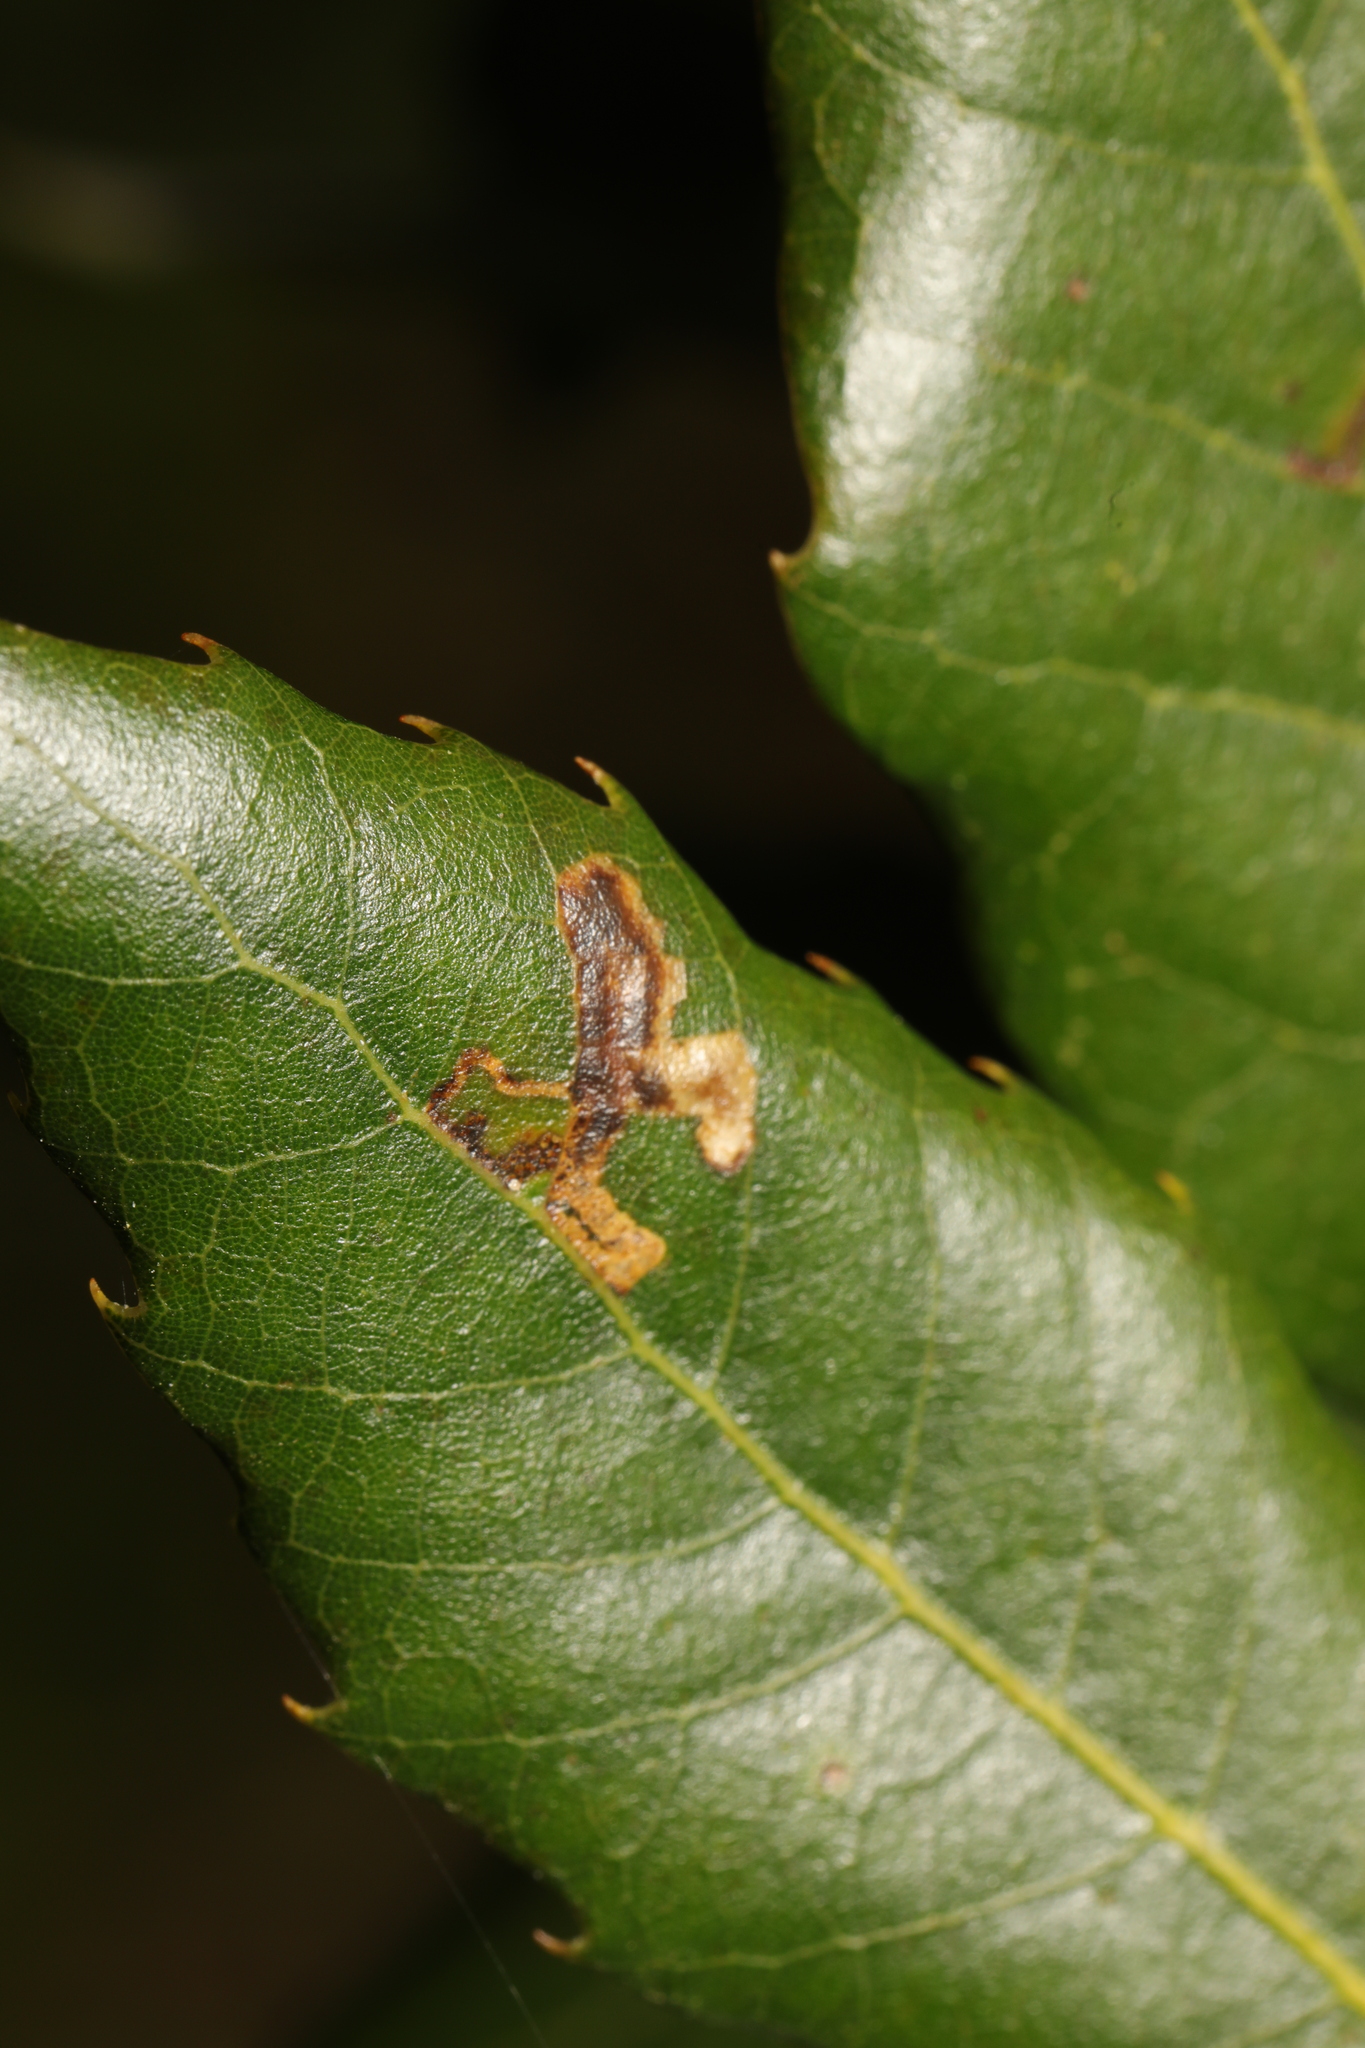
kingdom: Animalia
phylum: Arthropoda
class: Insecta
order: Lepidoptera
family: Nepticulidae
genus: Ectoedemia
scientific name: Ectoedemia heringella
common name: New holm-oak pigmy
